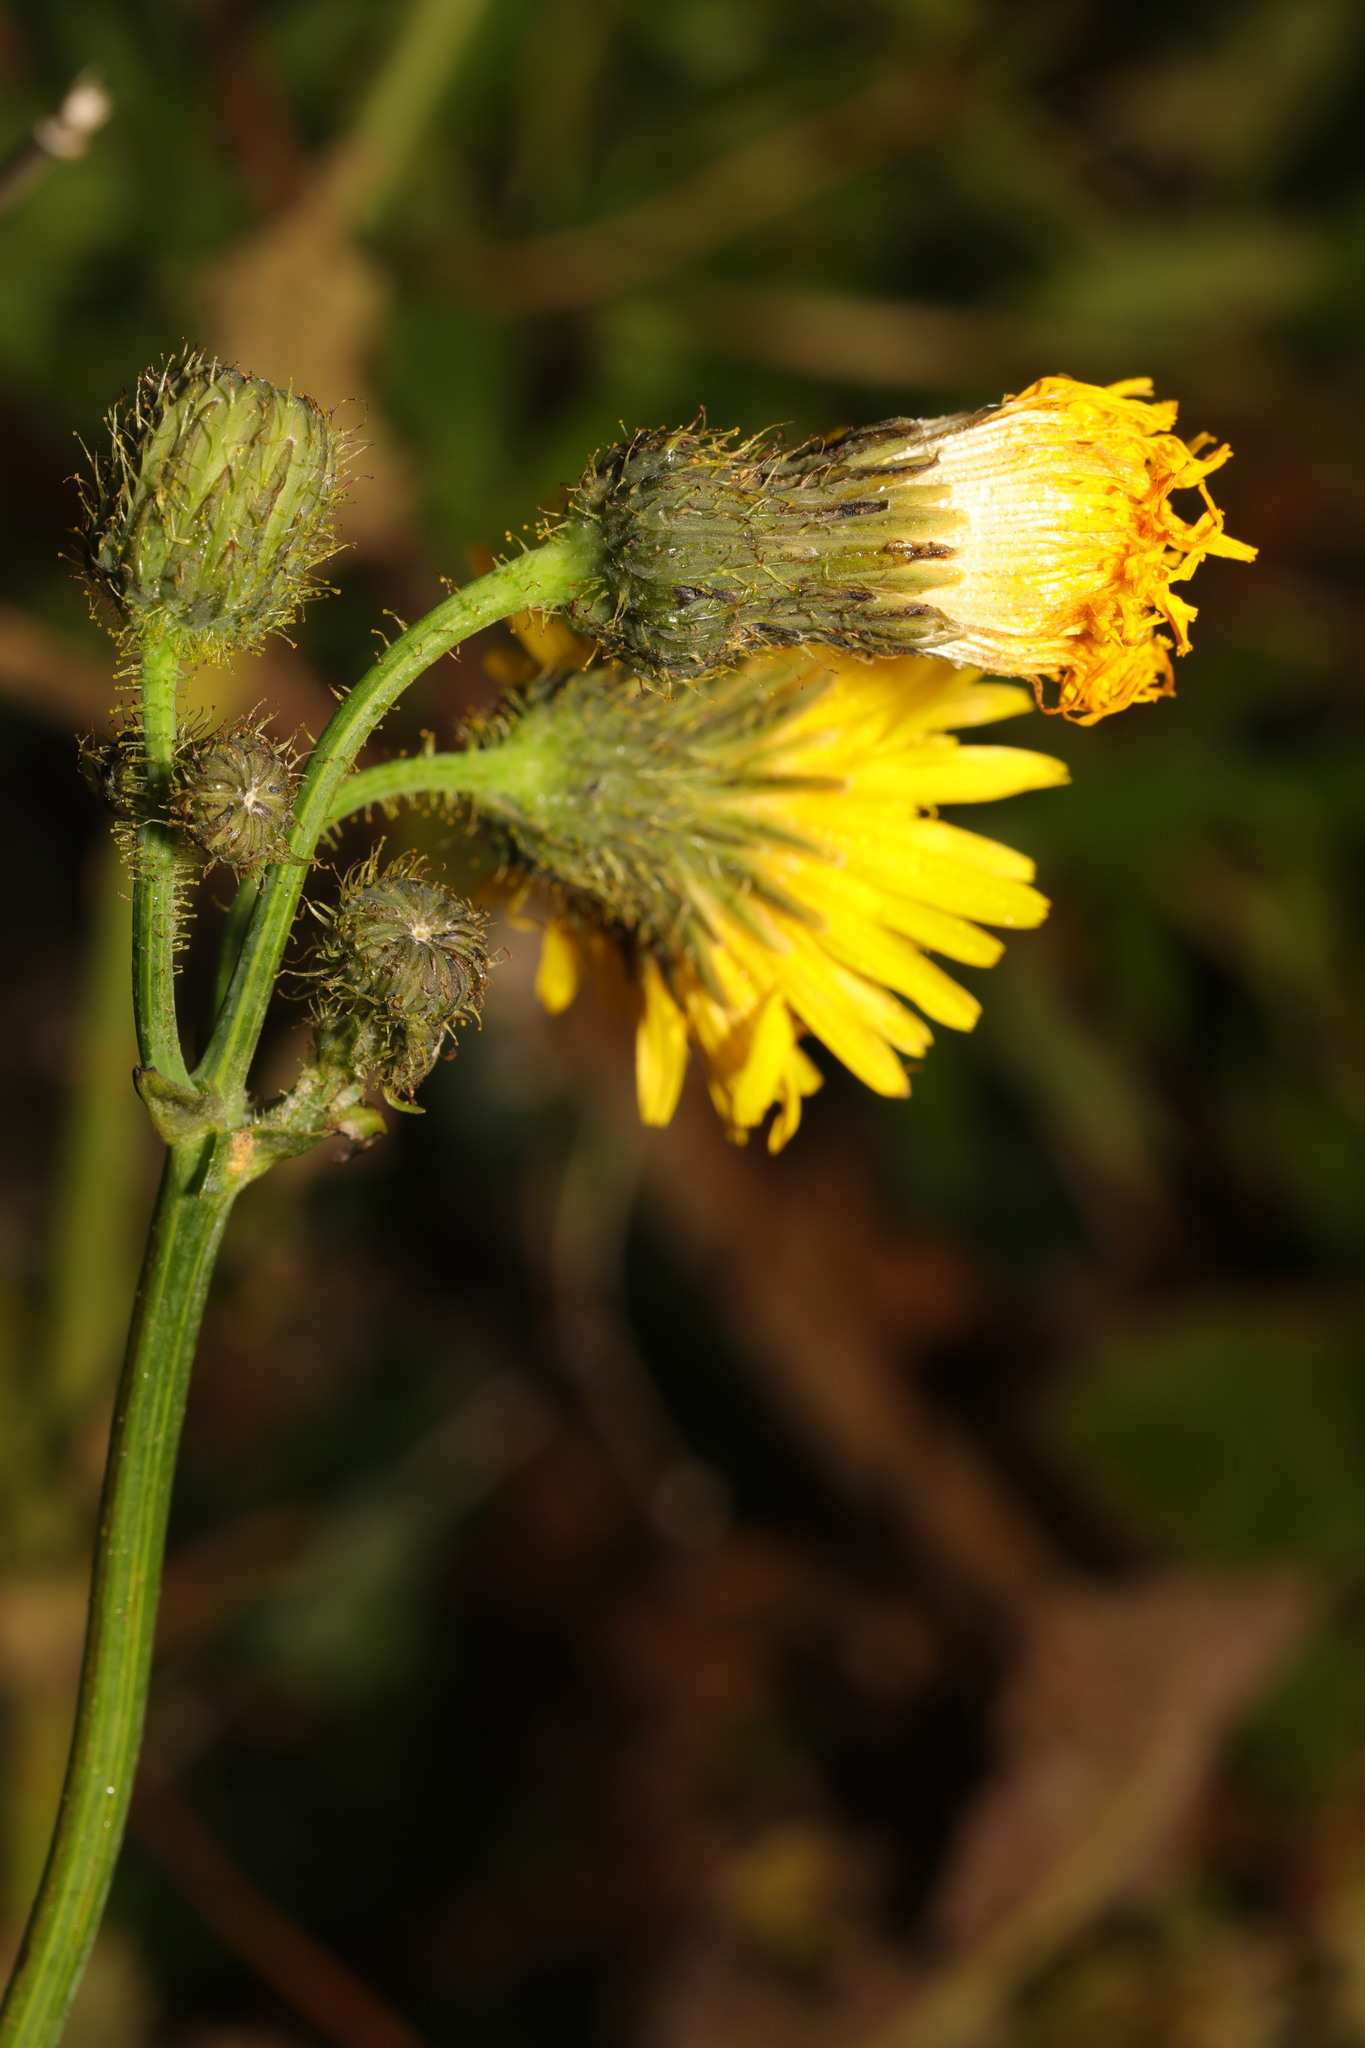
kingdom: Plantae
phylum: Tracheophyta
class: Magnoliopsida
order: Asterales
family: Asteraceae
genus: Sonchus
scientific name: Sonchus arvensis
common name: Perennial sow-thistle
